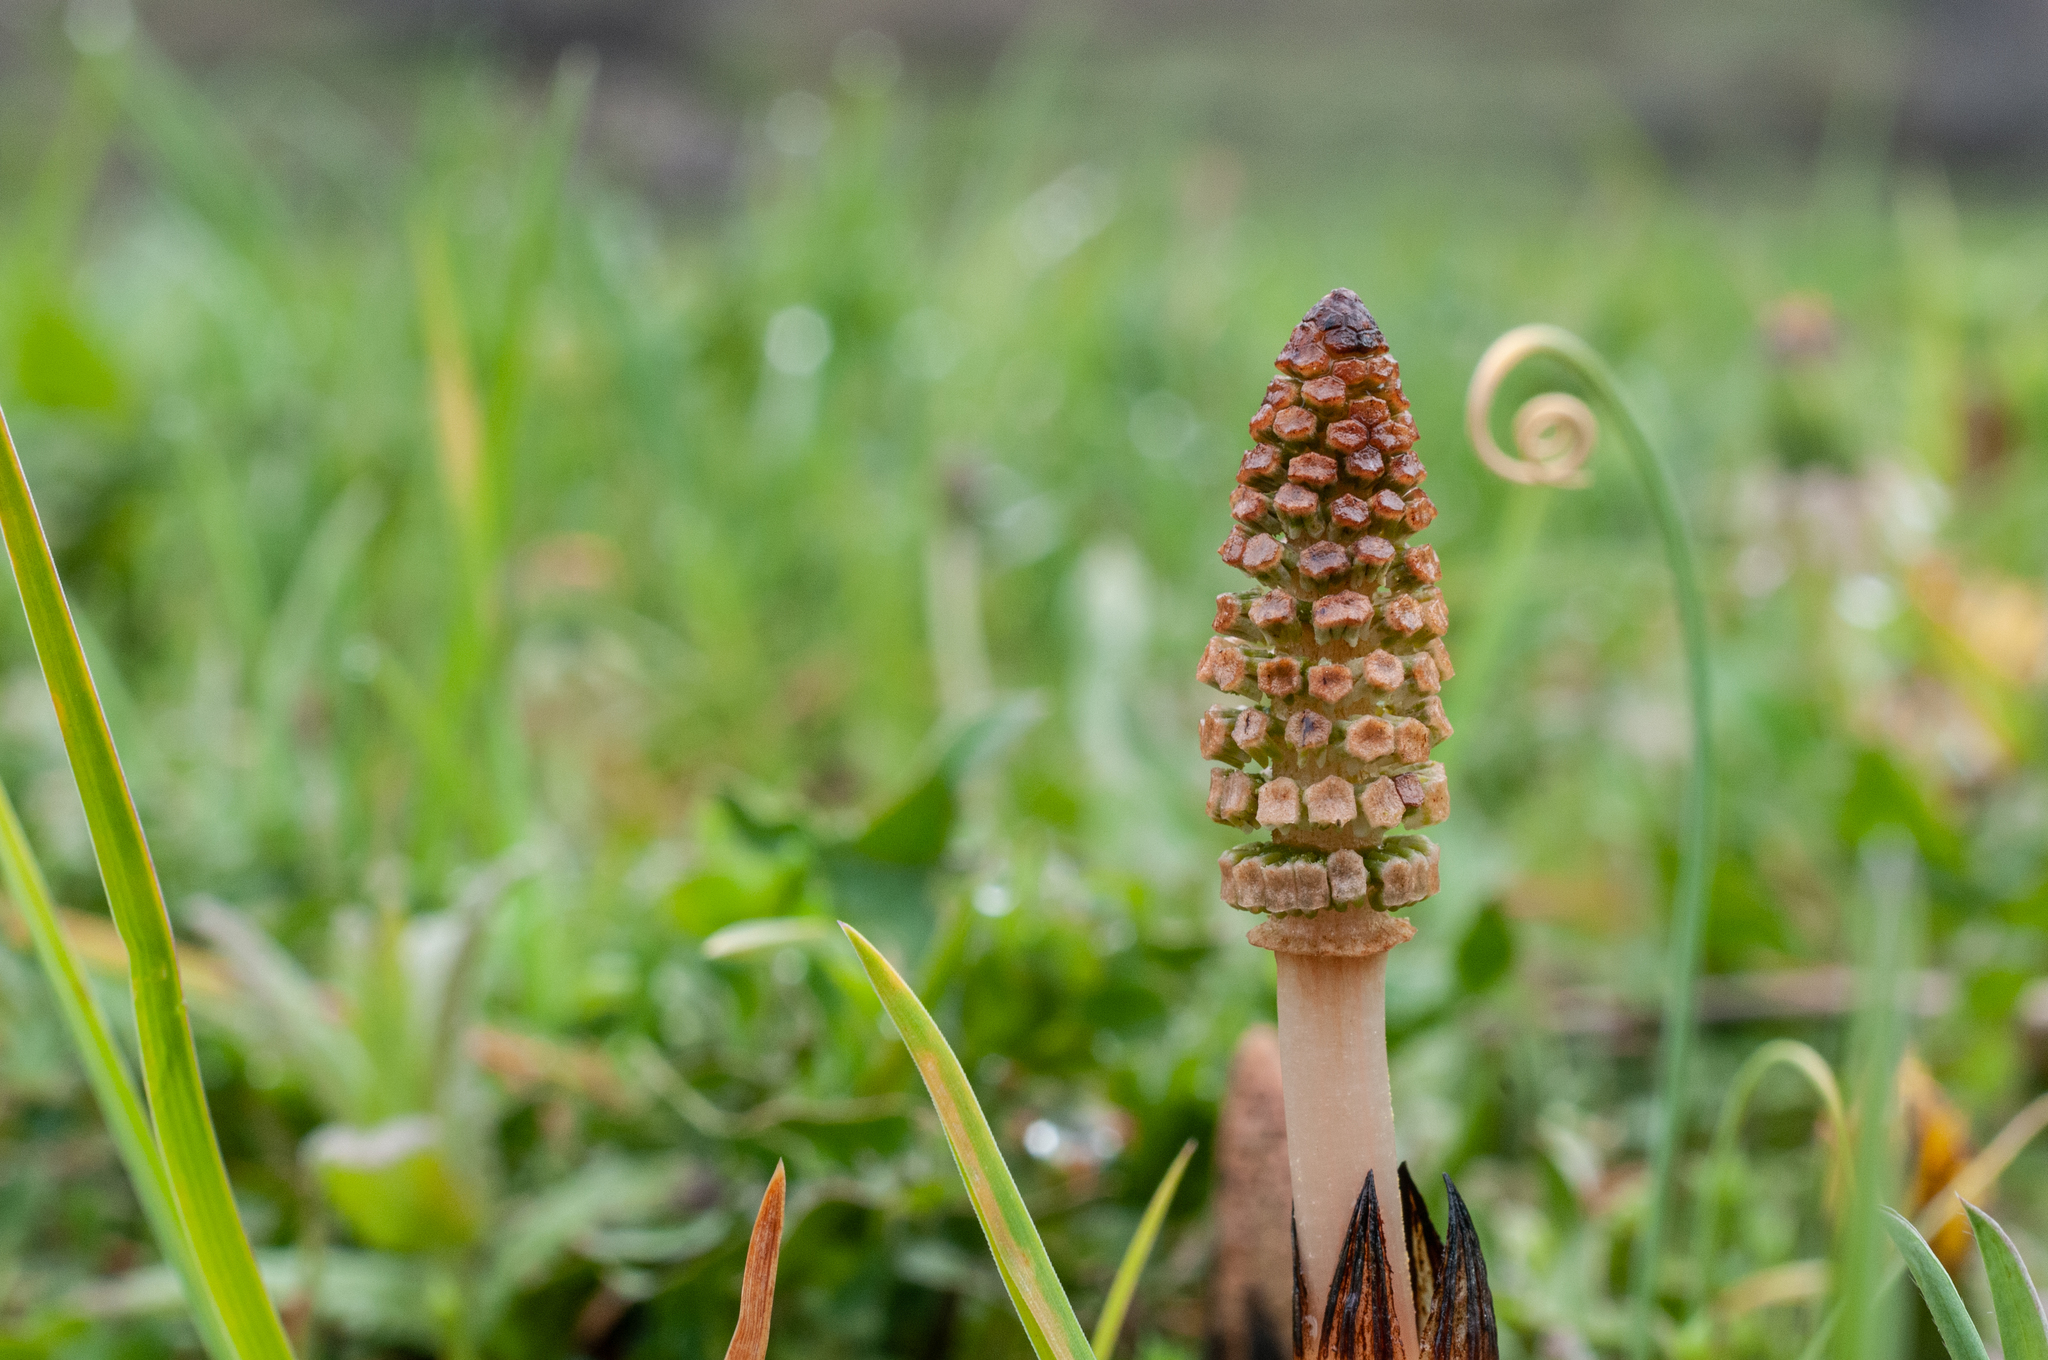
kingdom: Plantae
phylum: Tracheophyta
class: Polypodiopsida
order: Equisetales
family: Equisetaceae
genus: Equisetum
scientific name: Equisetum arvense
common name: Field horsetail
